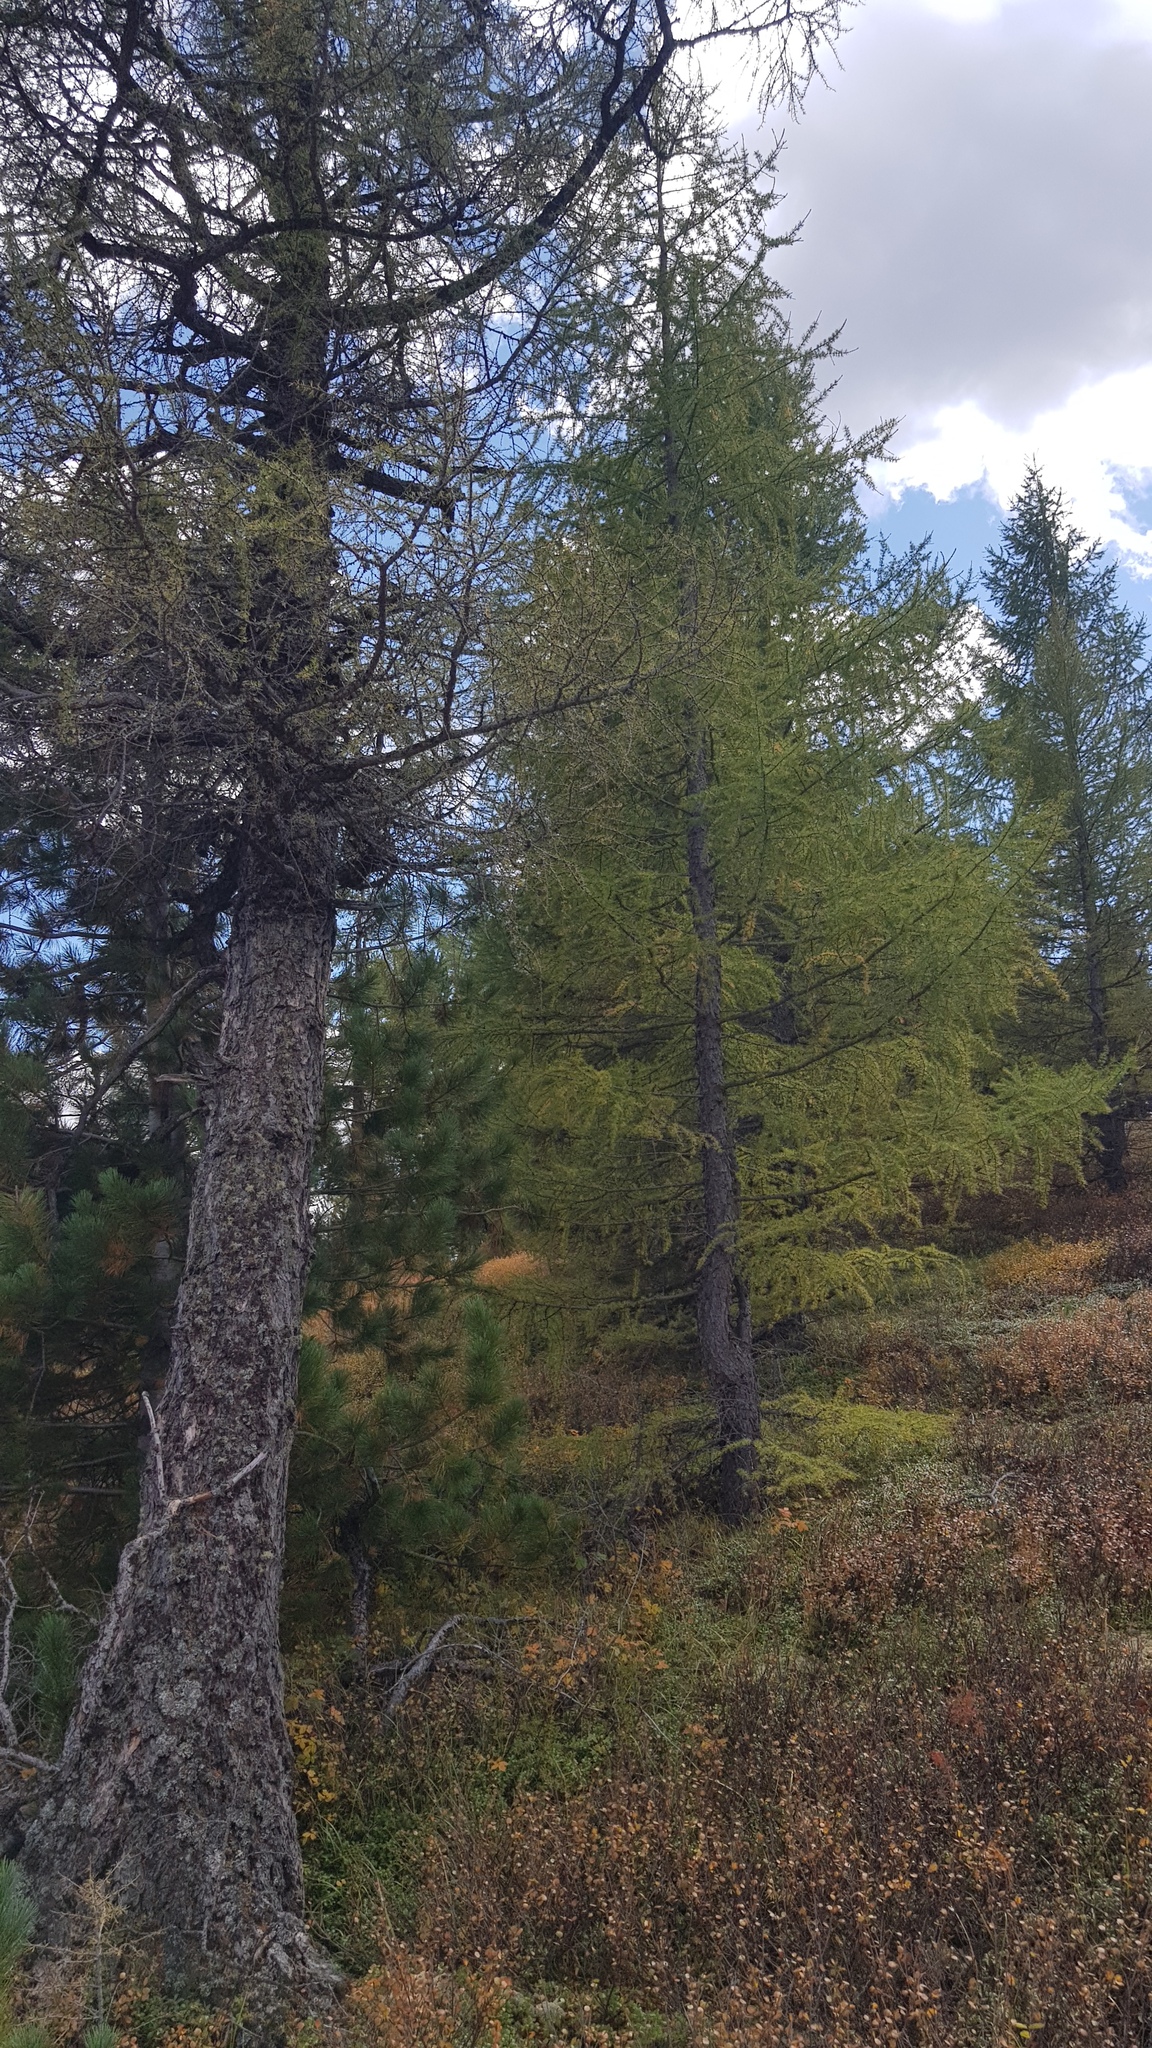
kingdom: Plantae
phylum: Tracheophyta
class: Pinopsida
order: Pinales
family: Pinaceae
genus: Larix
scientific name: Larix sibirica
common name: Siberian larch
